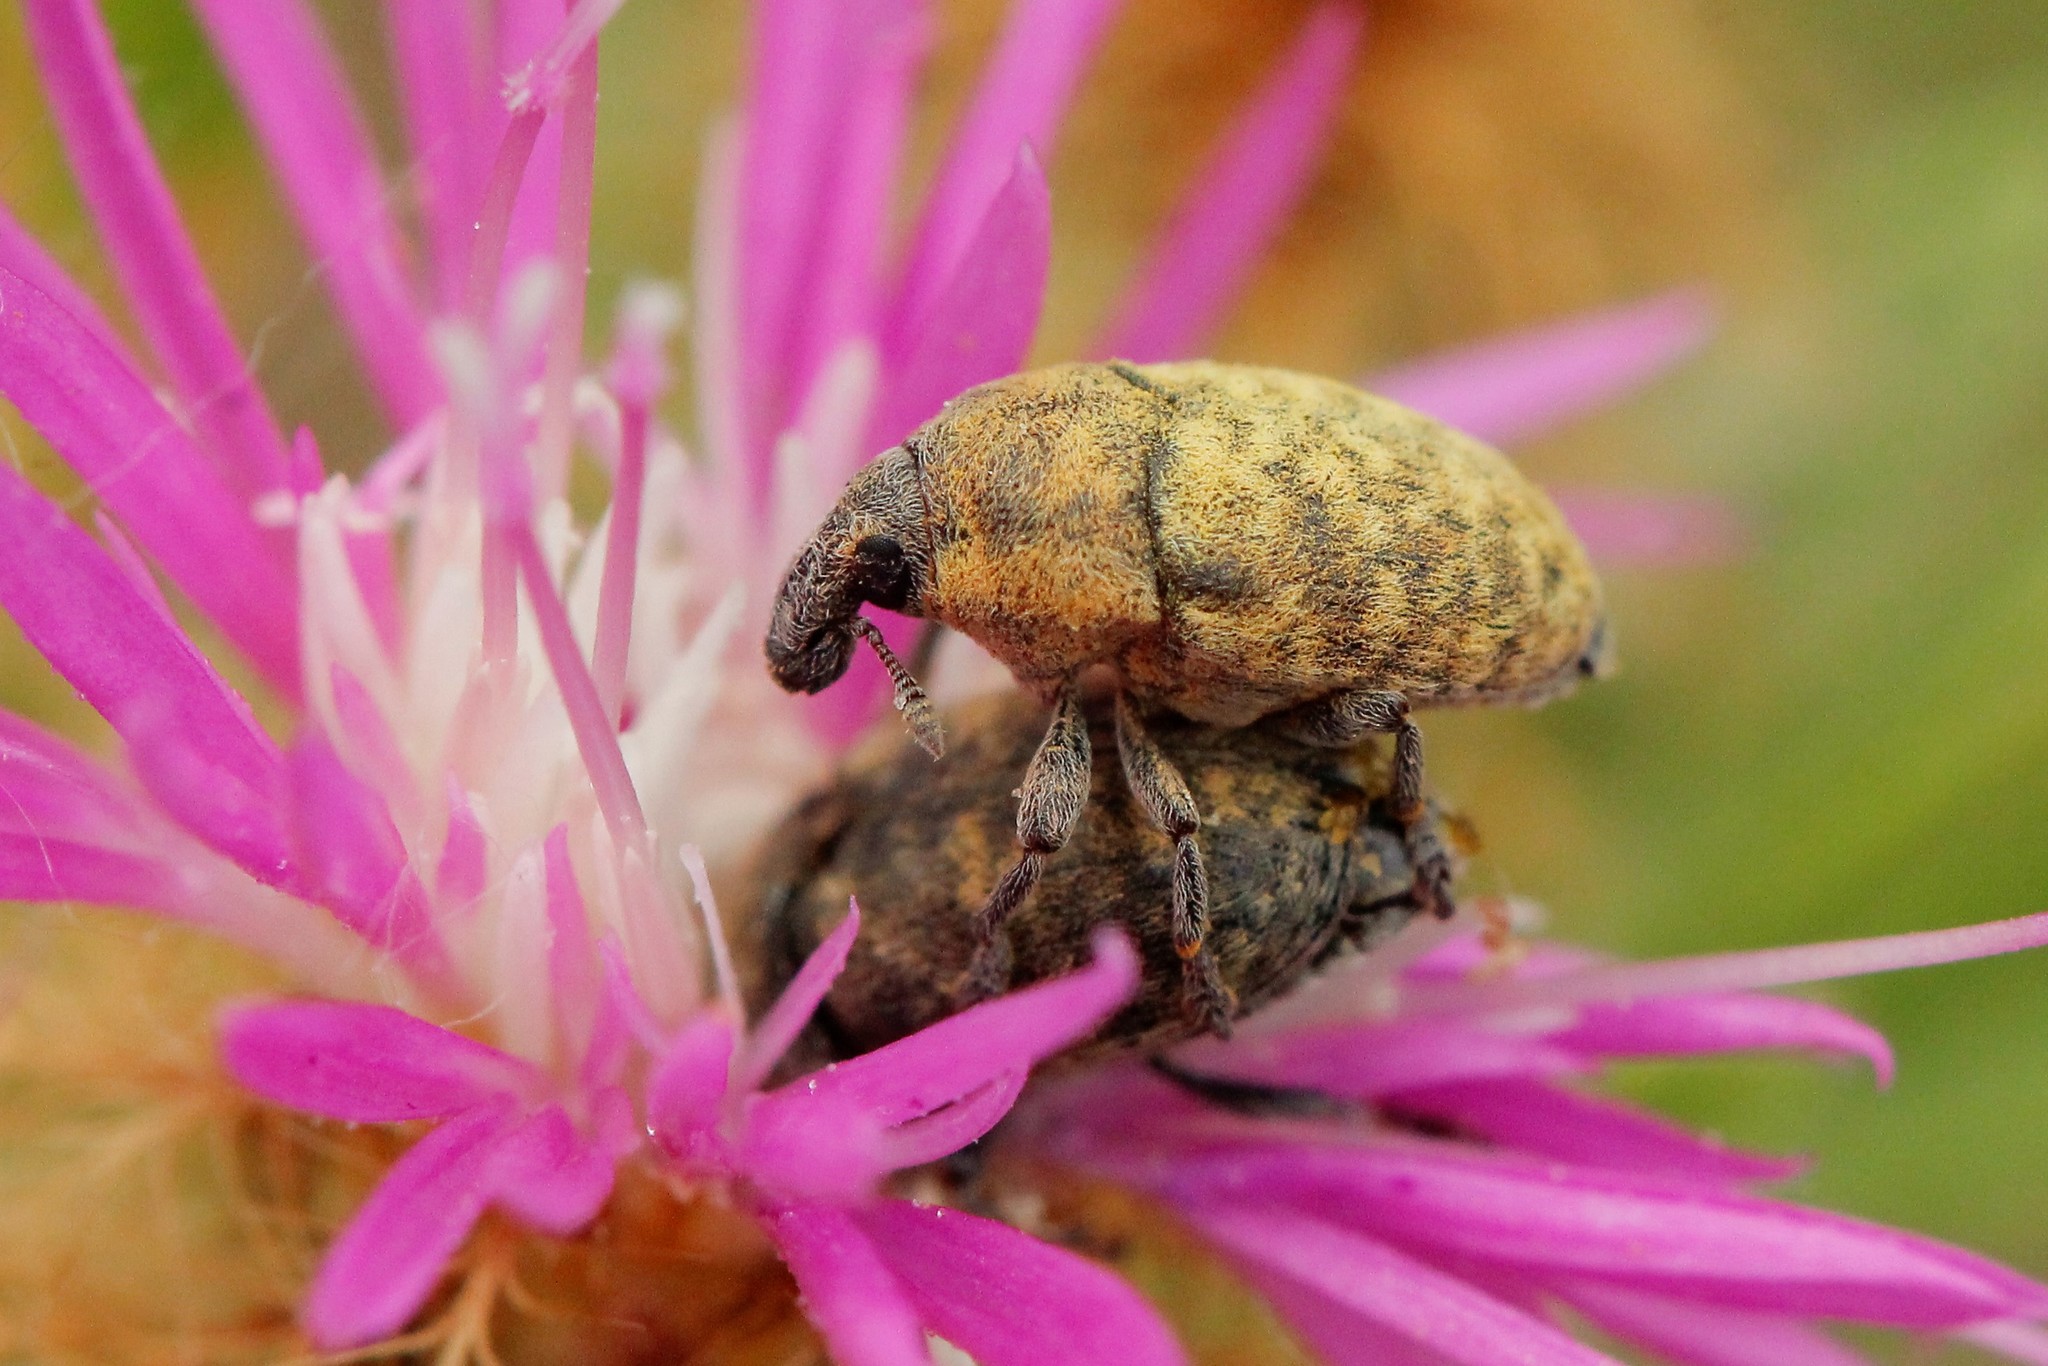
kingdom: Animalia
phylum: Arthropoda
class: Insecta
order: Coleoptera
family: Curculionidae
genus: Larinus
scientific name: Larinus obtusus
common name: Weevil
